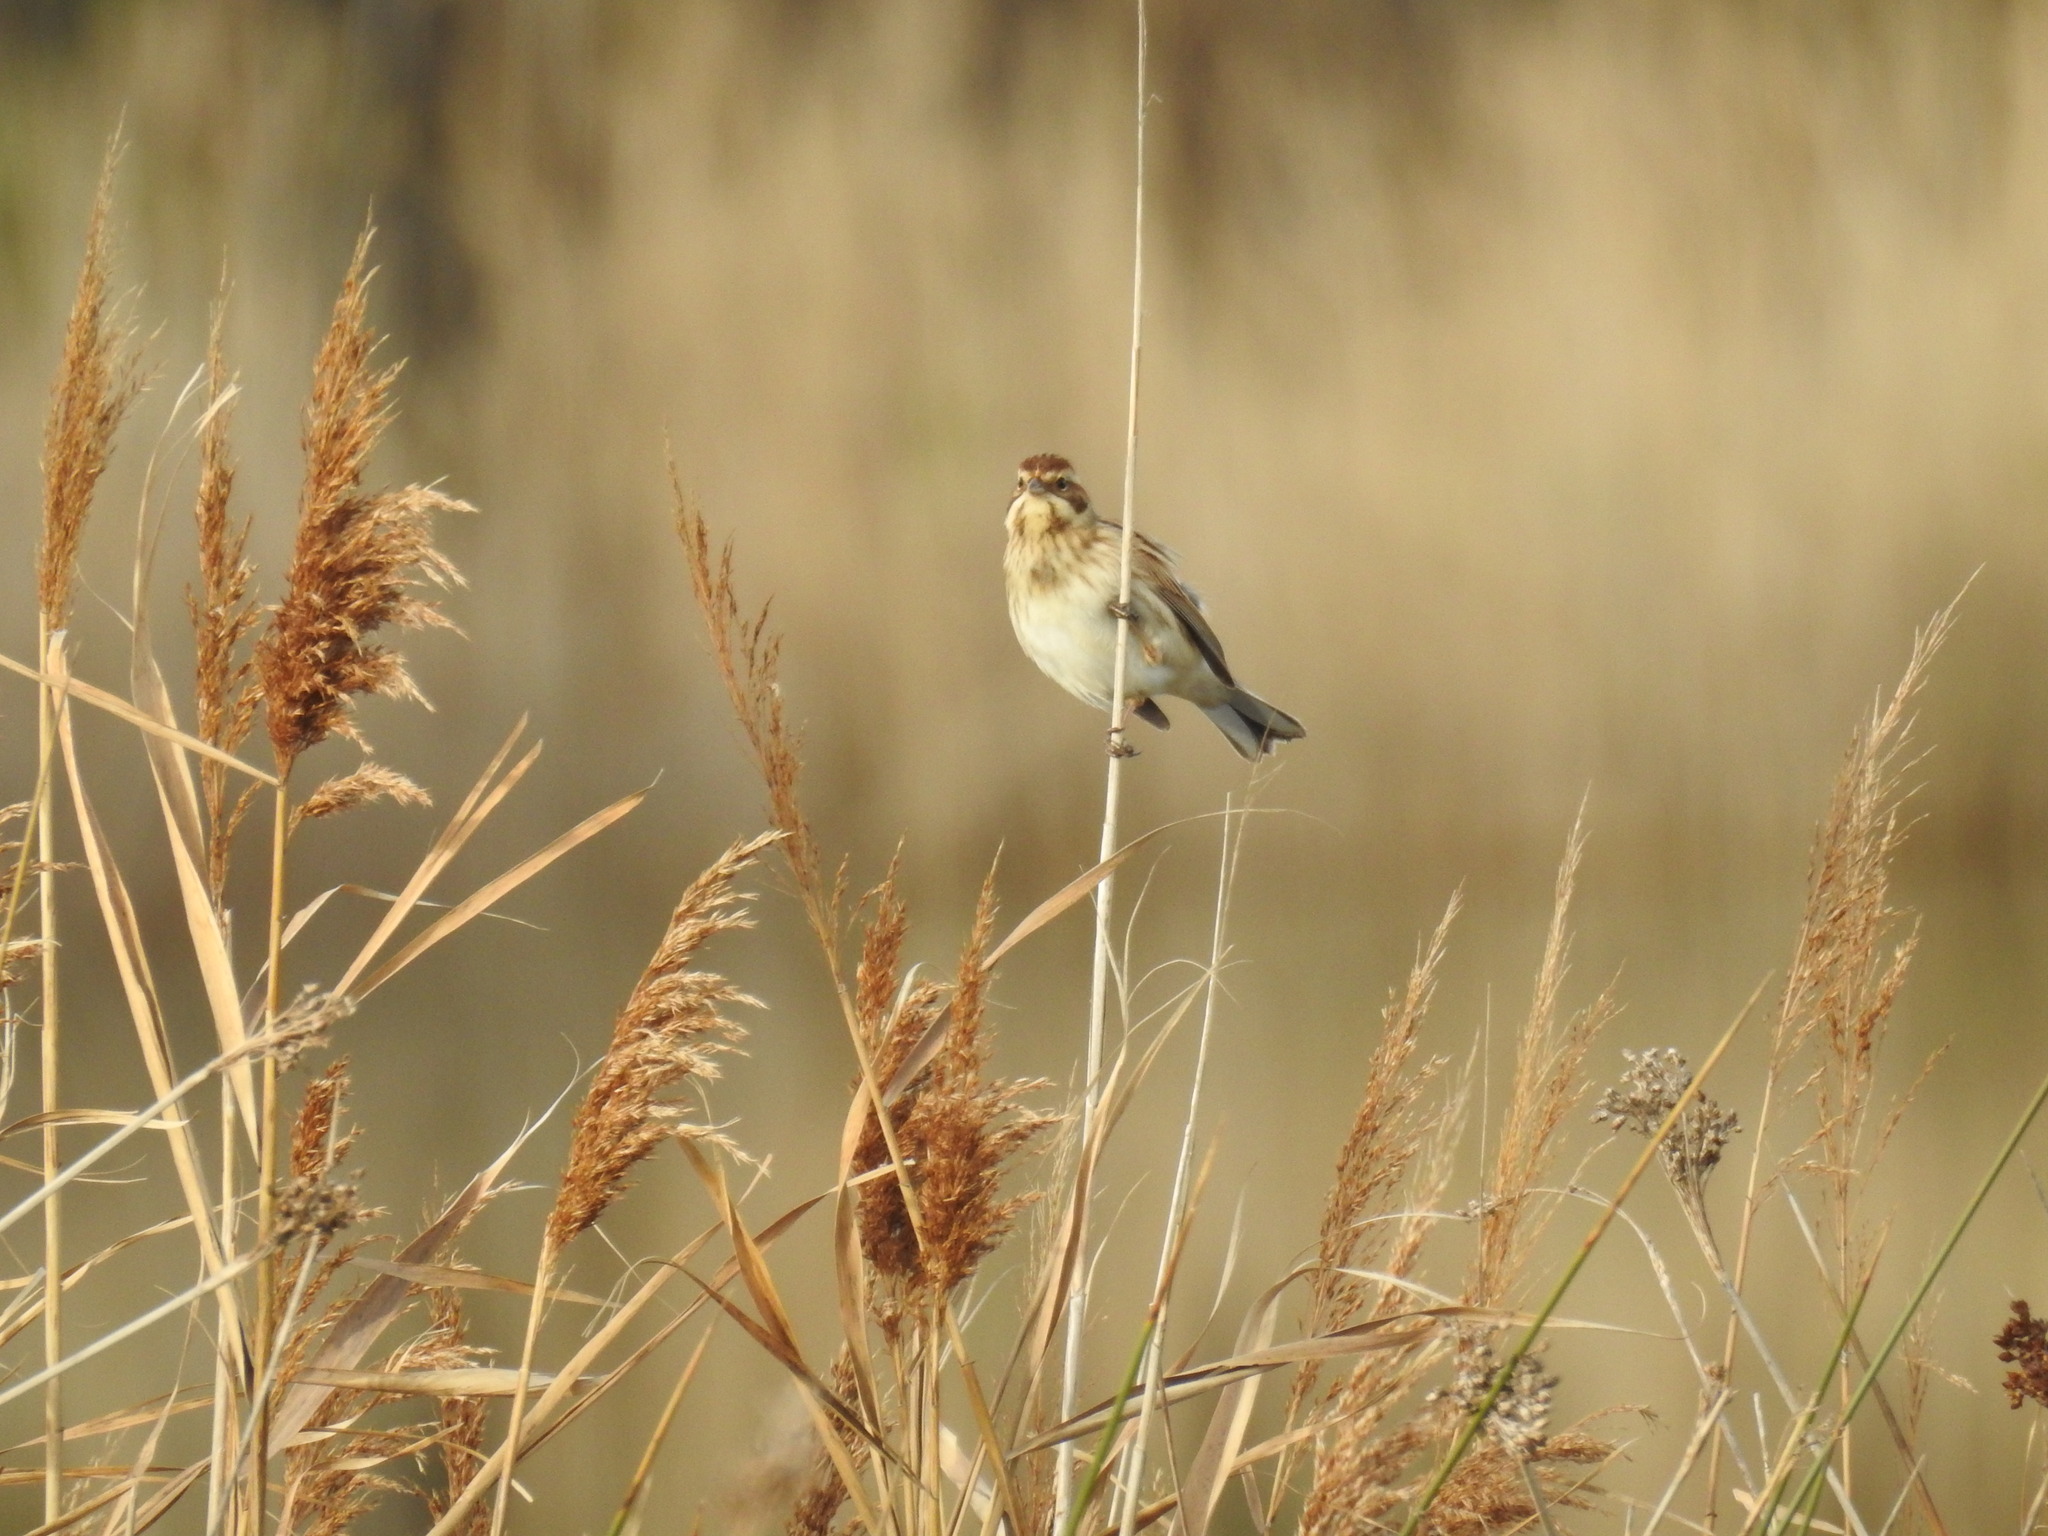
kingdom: Animalia
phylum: Chordata
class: Aves
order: Passeriformes
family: Emberizidae
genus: Emberiza
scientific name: Emberiza schoeniclus
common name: Reed bunting
